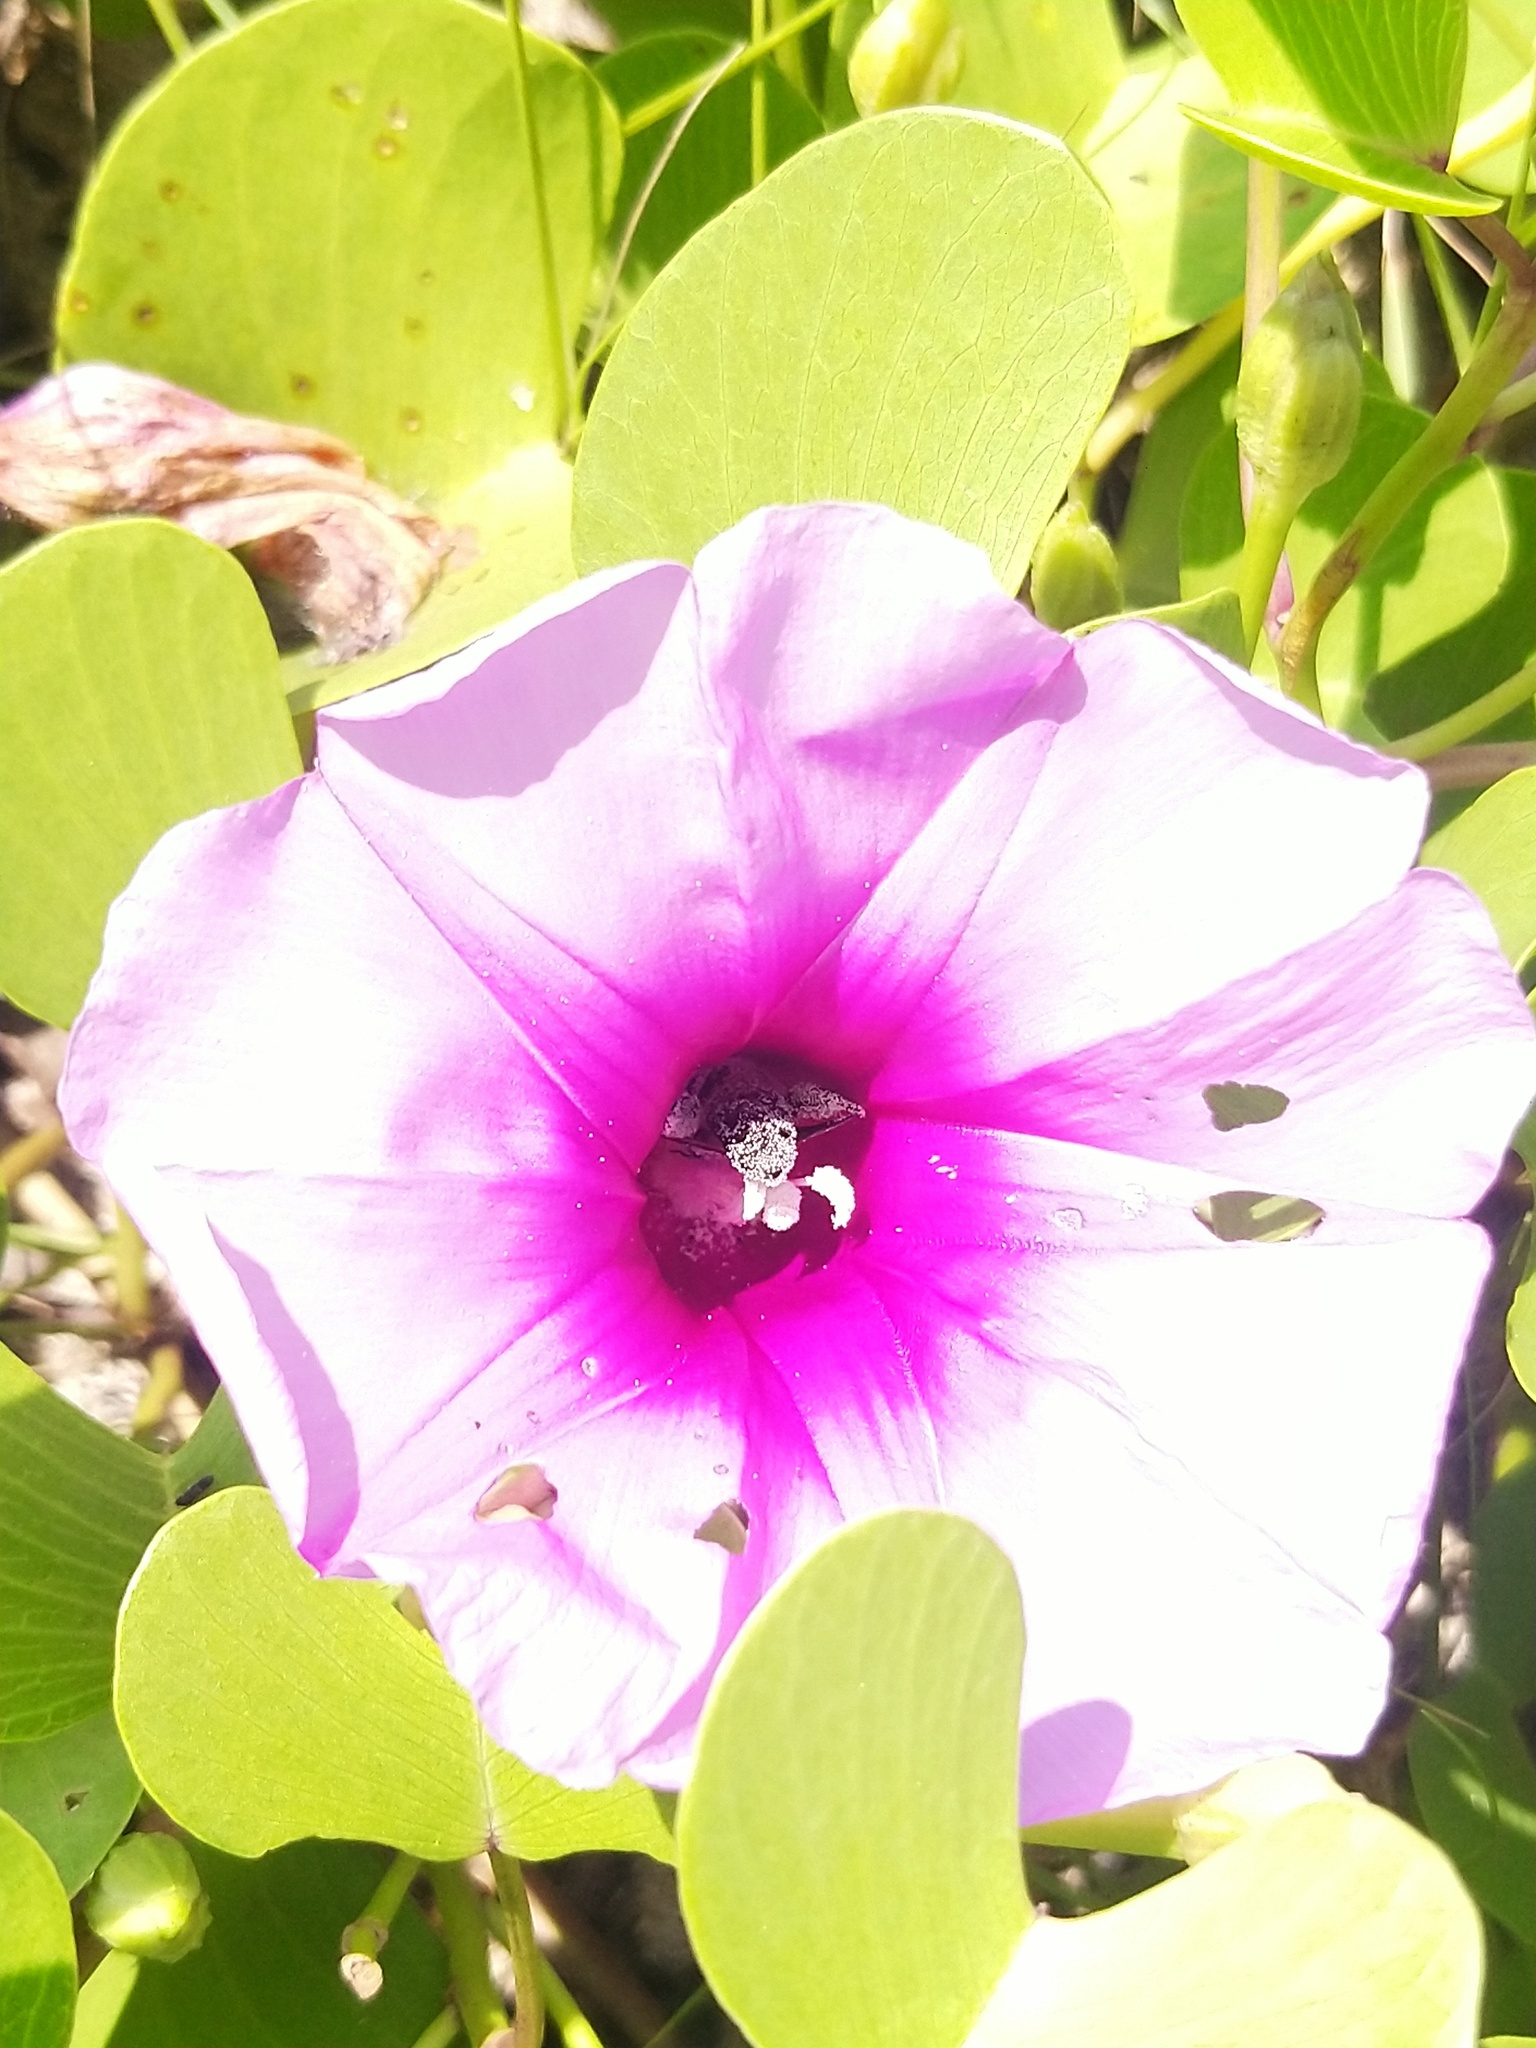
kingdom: Animalia
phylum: Arthropoda
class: Insecta
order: Hymenoptera
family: Apidae
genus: Apis
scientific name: Apis dorsata
